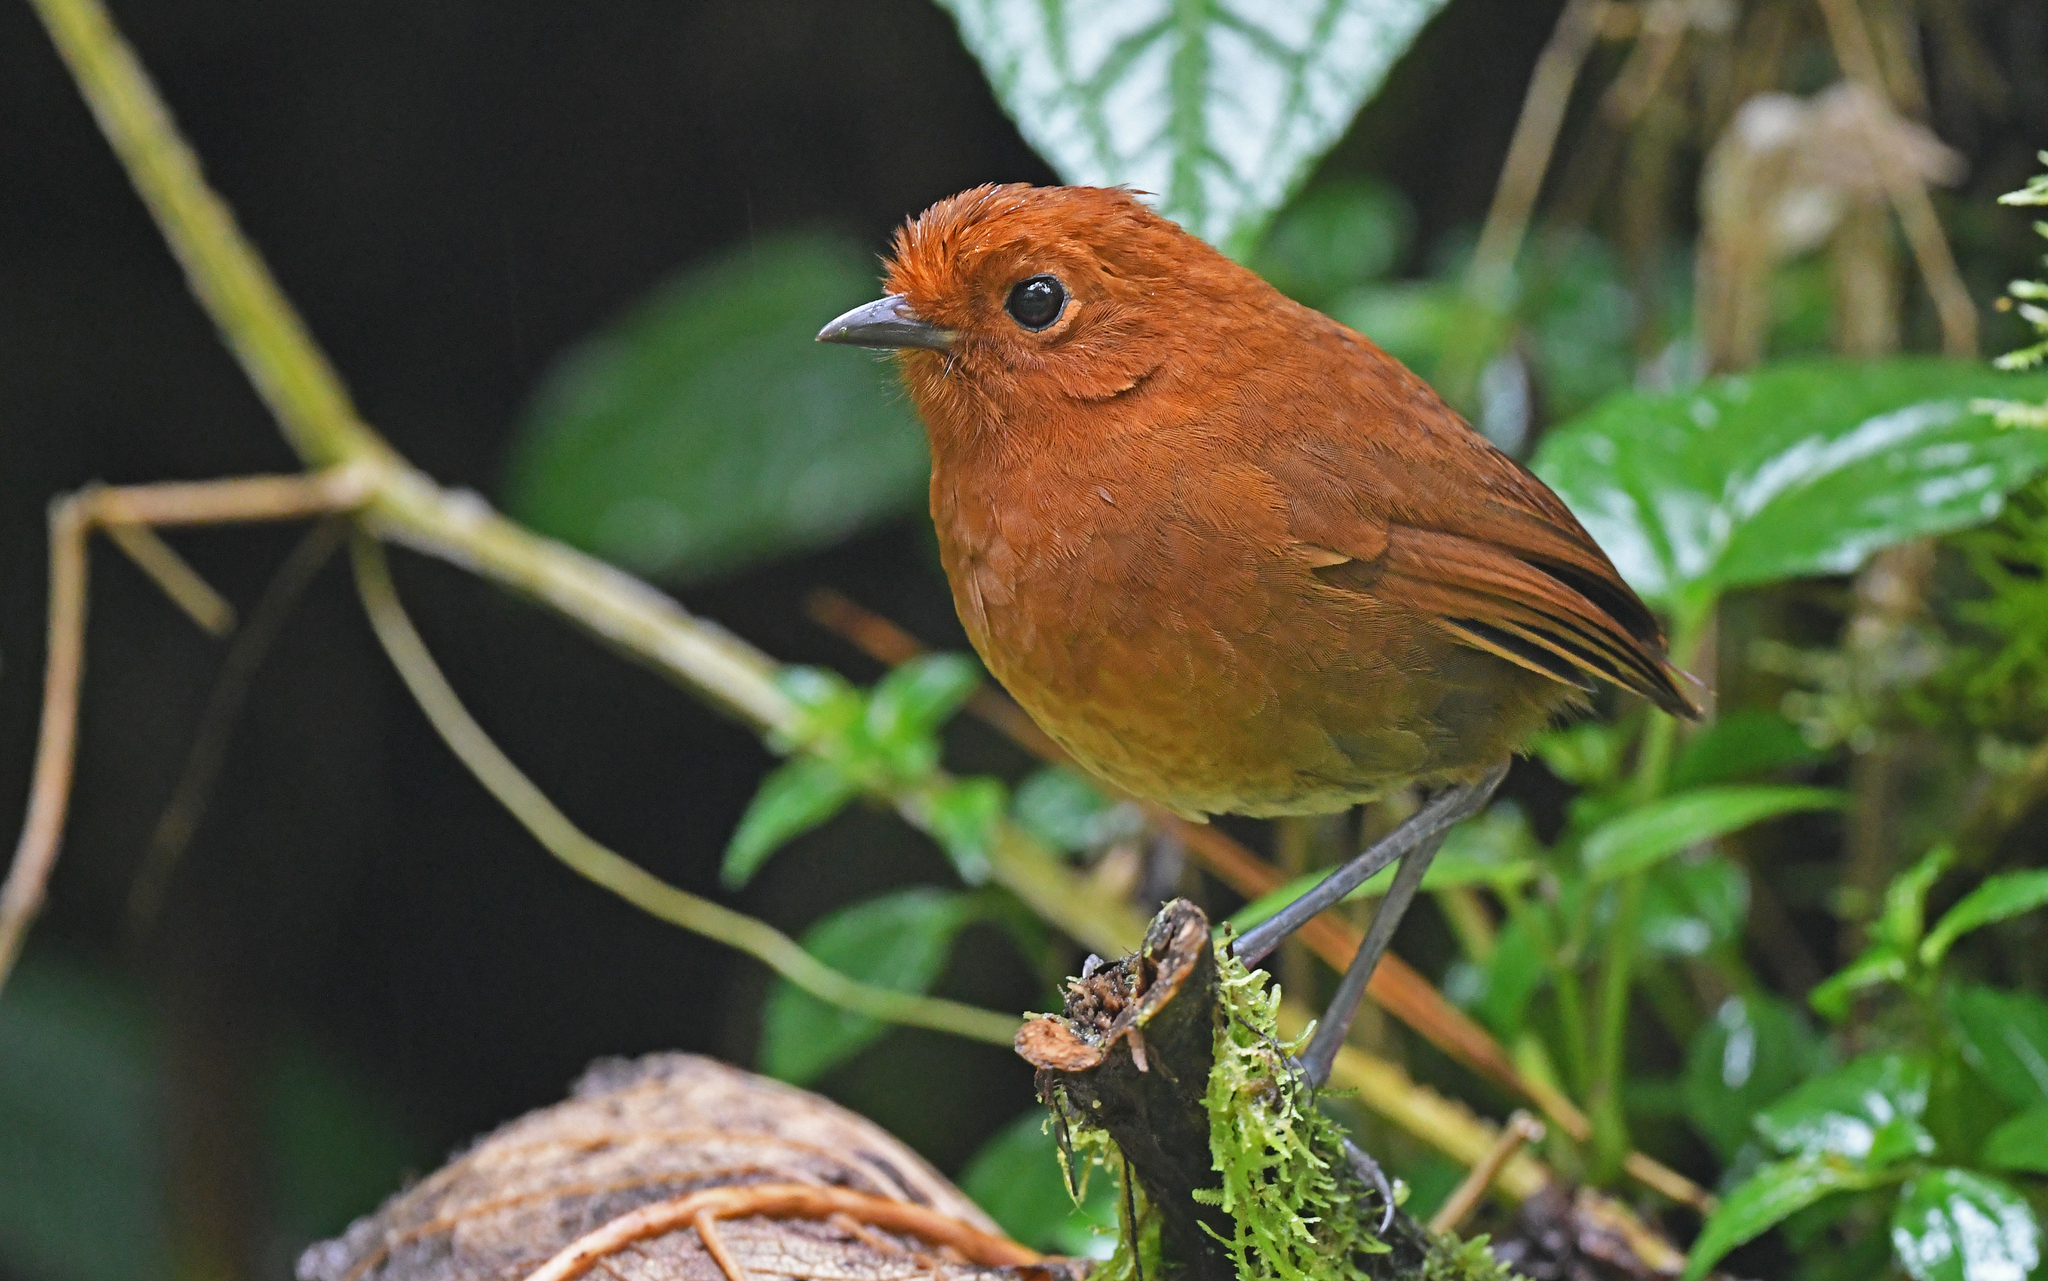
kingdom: Animalia
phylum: Chordata
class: Aves
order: Passeriformes
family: Grallariidae
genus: Grallaria
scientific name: Grallaria alvarezi
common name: Chami antpitta
